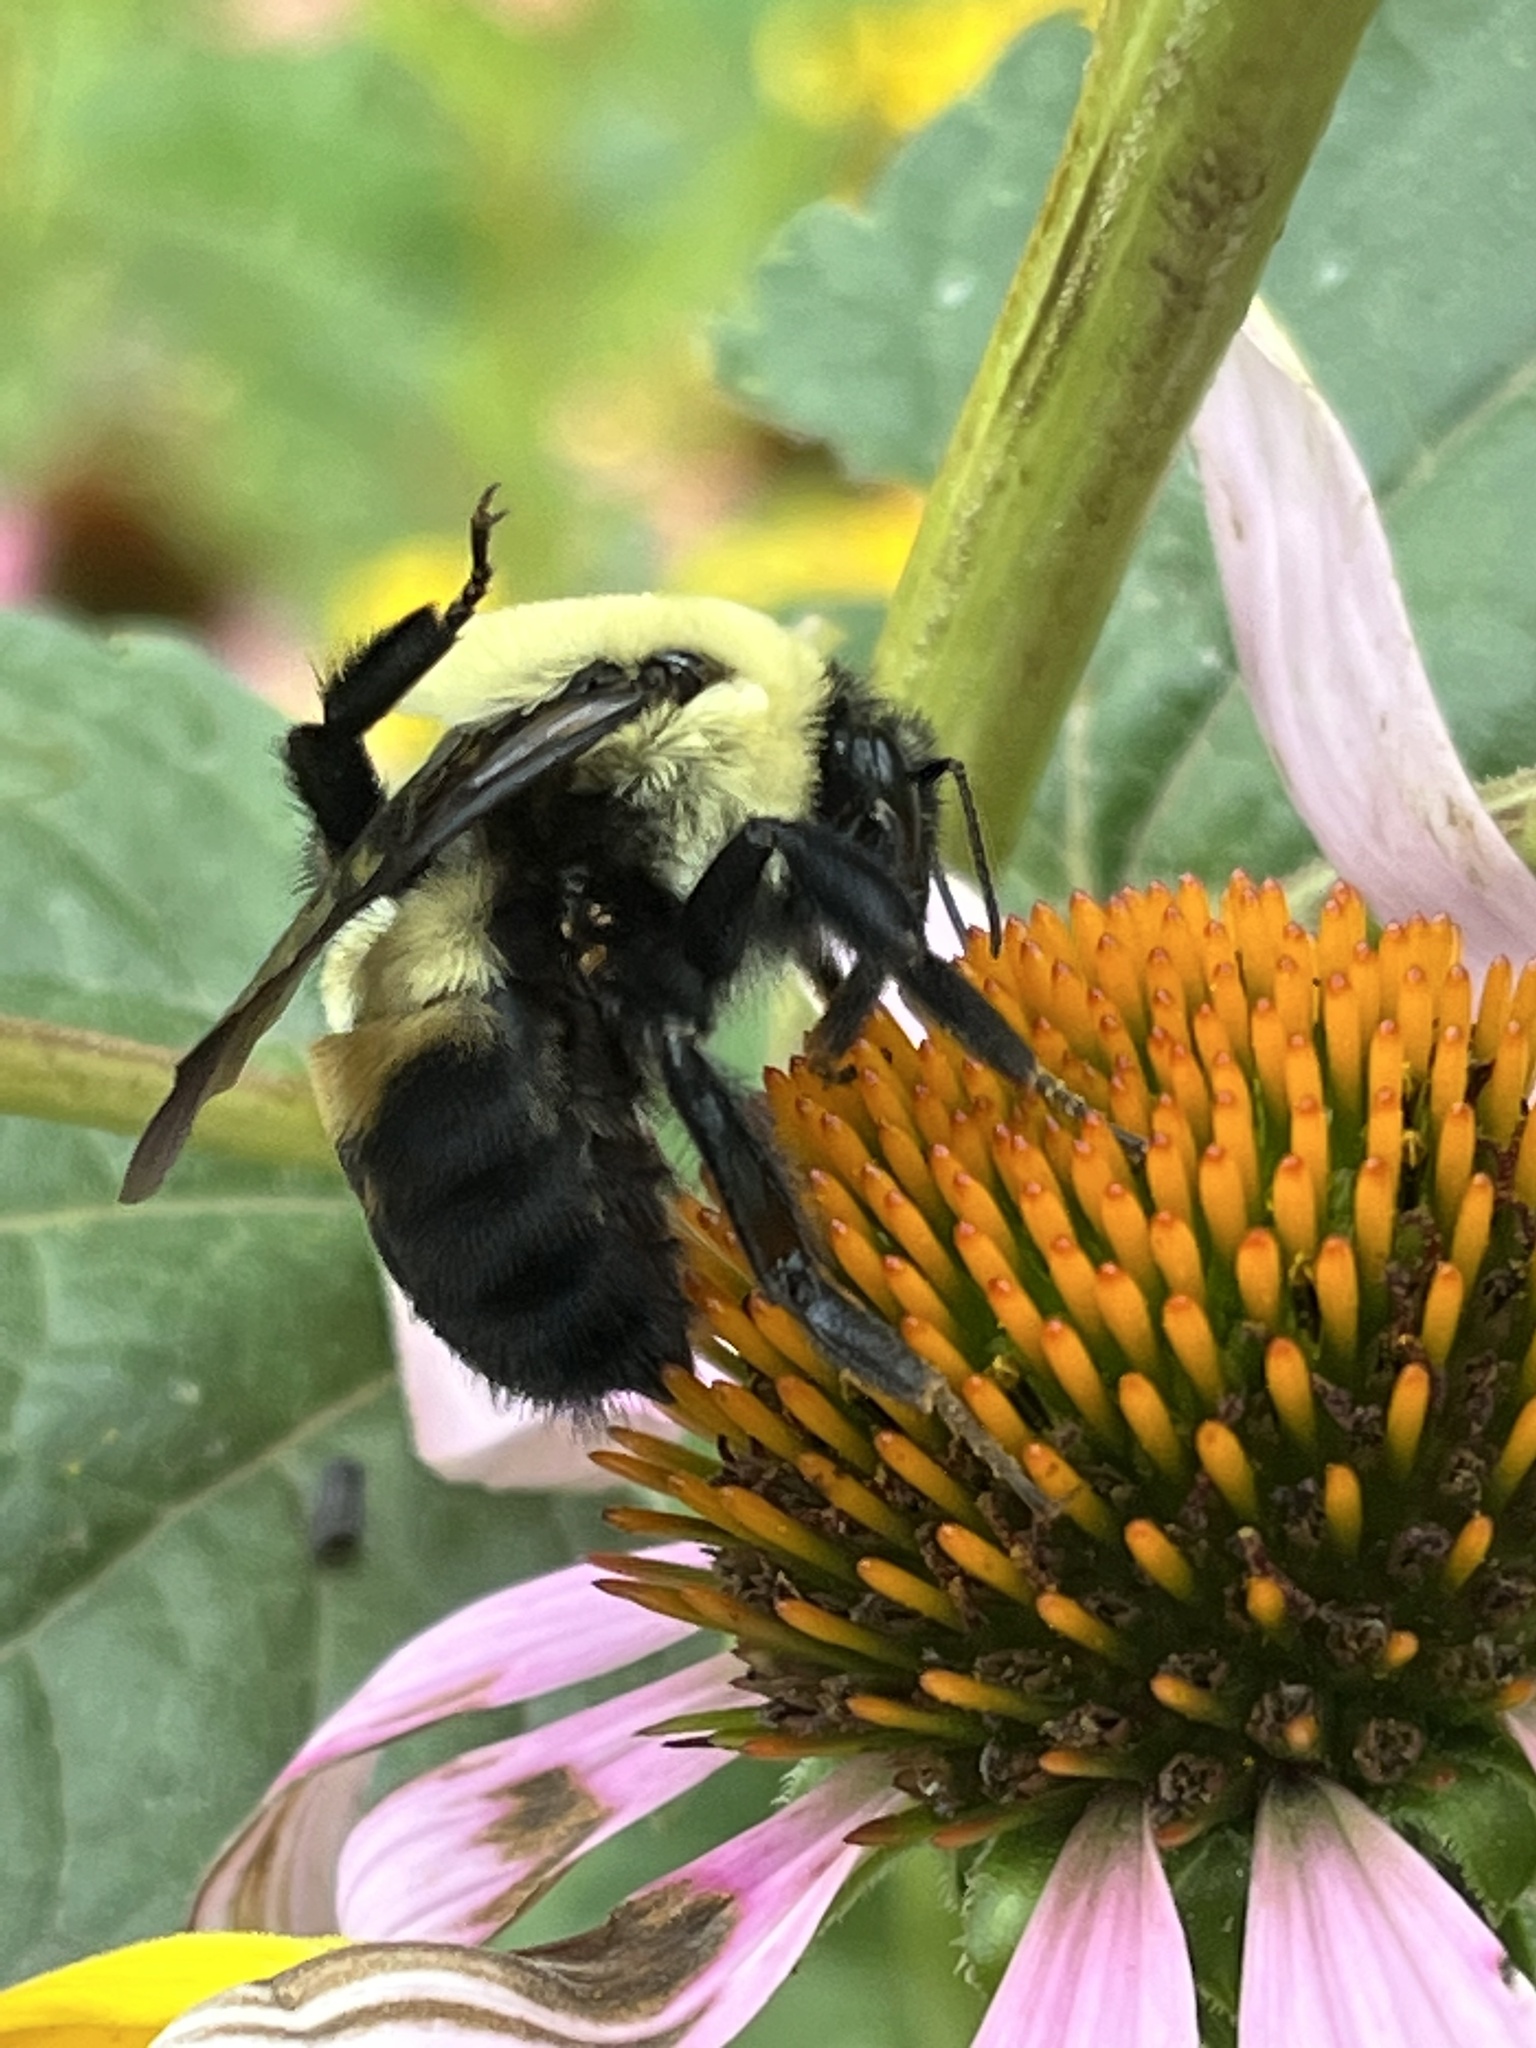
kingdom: Animalia
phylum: Arthropoda
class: Insecta
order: Hymenoptera
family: Apidae
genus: Bombus
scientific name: Bombus griseocollis
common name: Brown-belted bumble bee
